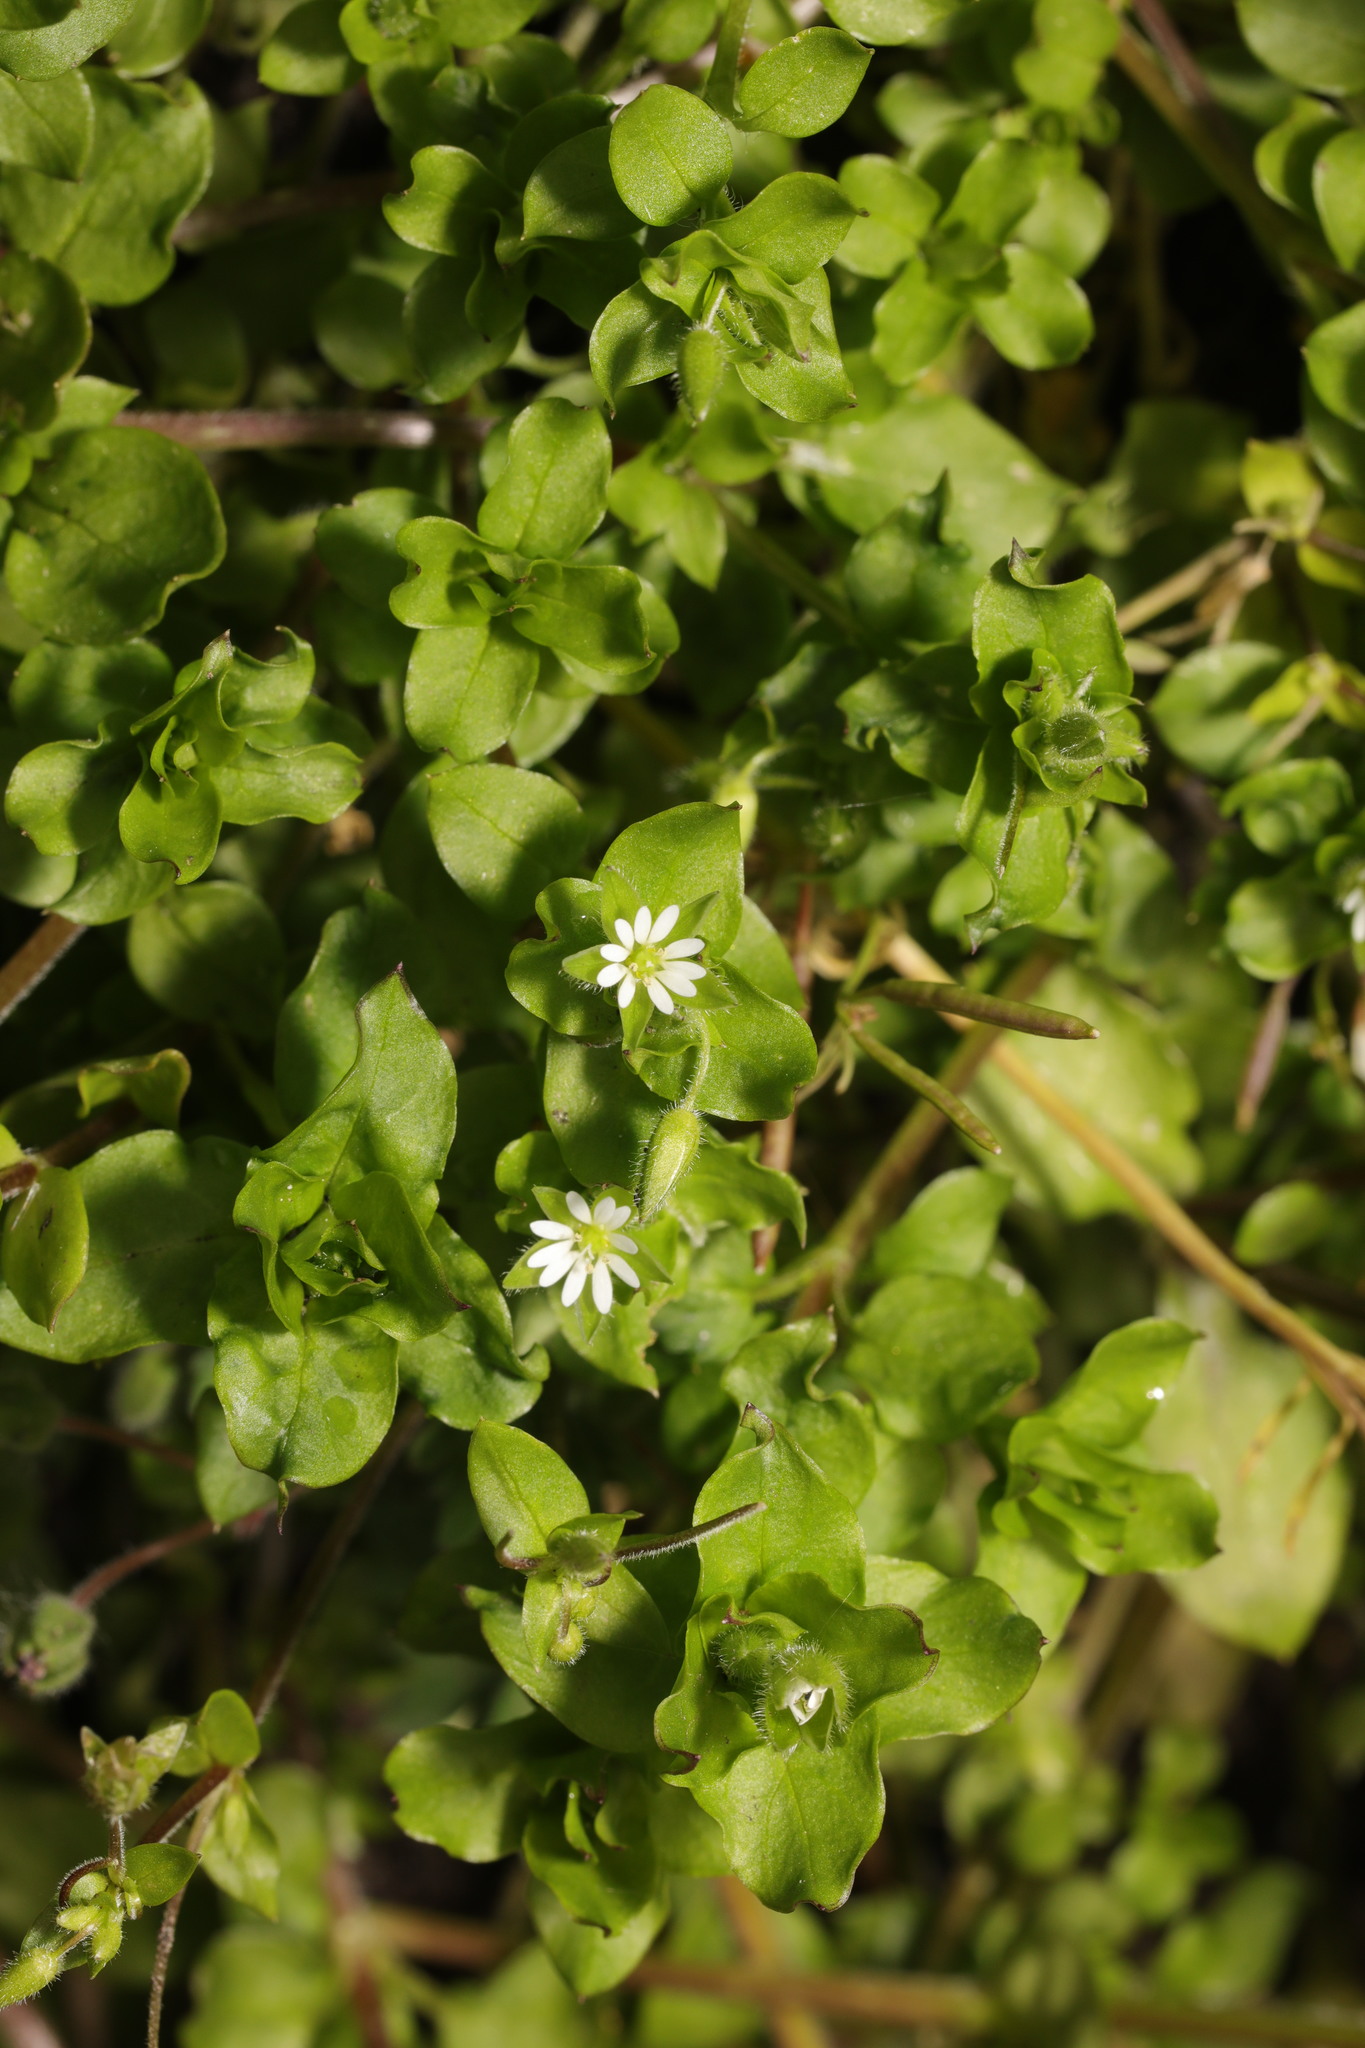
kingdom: Plantae
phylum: Tracheophyta
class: Magnoliopsida
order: Caryophyllales
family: Caryophyllaceae
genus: Stellaria
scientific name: Stellaria media
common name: Common chickweed
